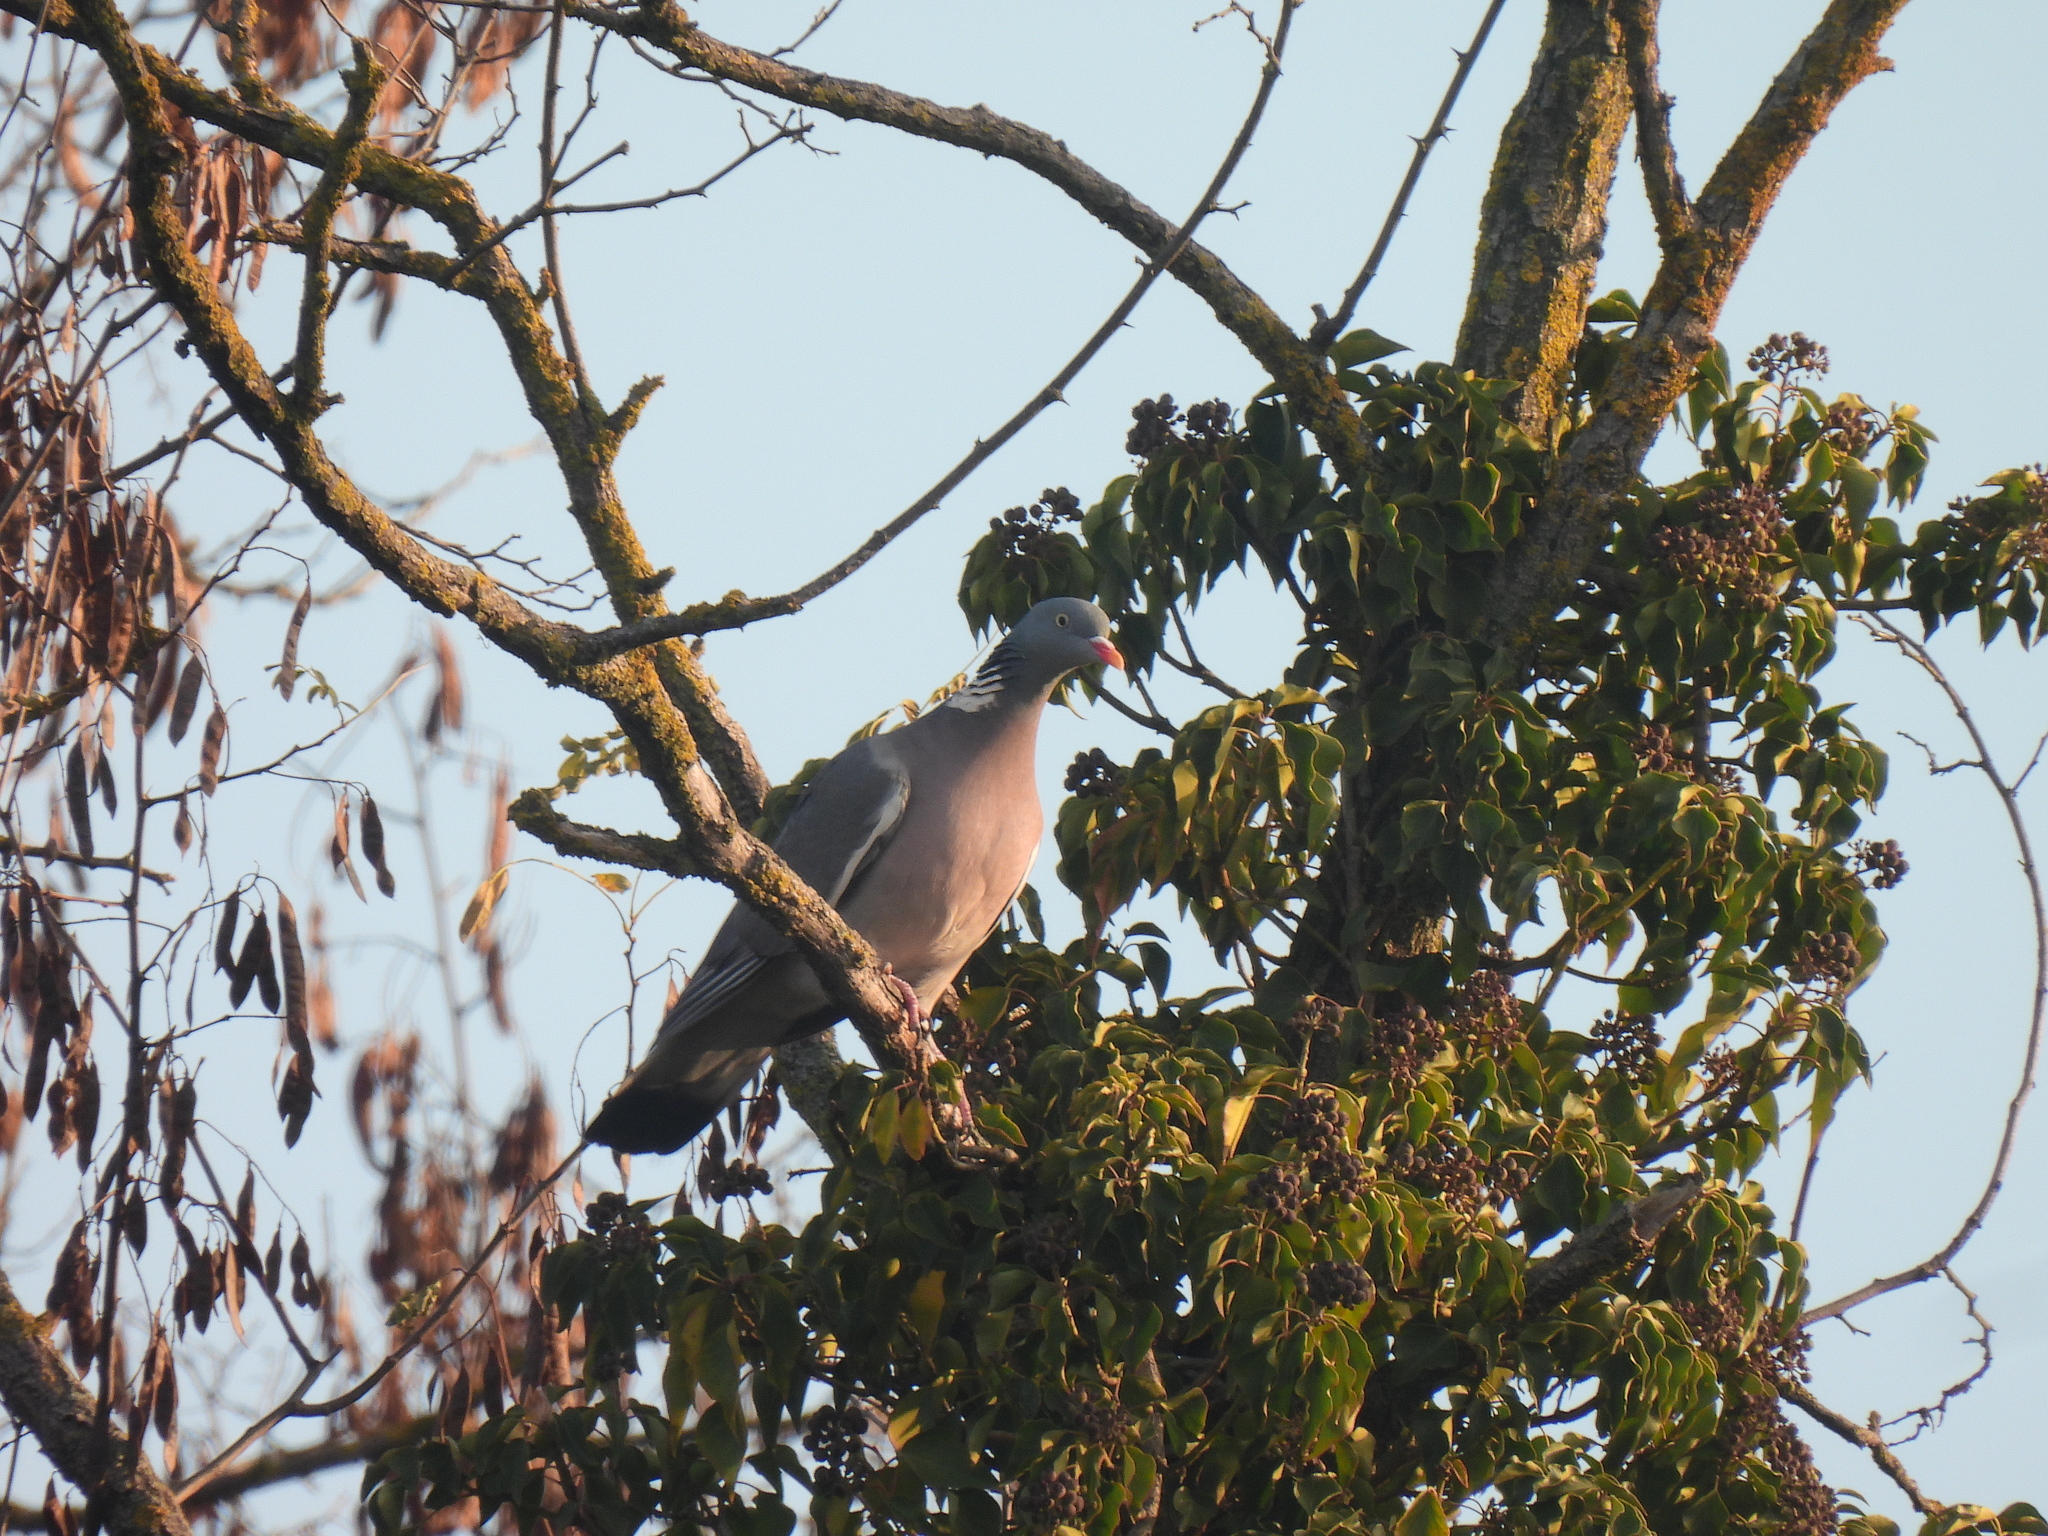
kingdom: Animalia
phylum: Chordata
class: Aves
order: Columbiformes
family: Columbidae
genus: Columba
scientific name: Columba palumbus
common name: Common wood pigeon
